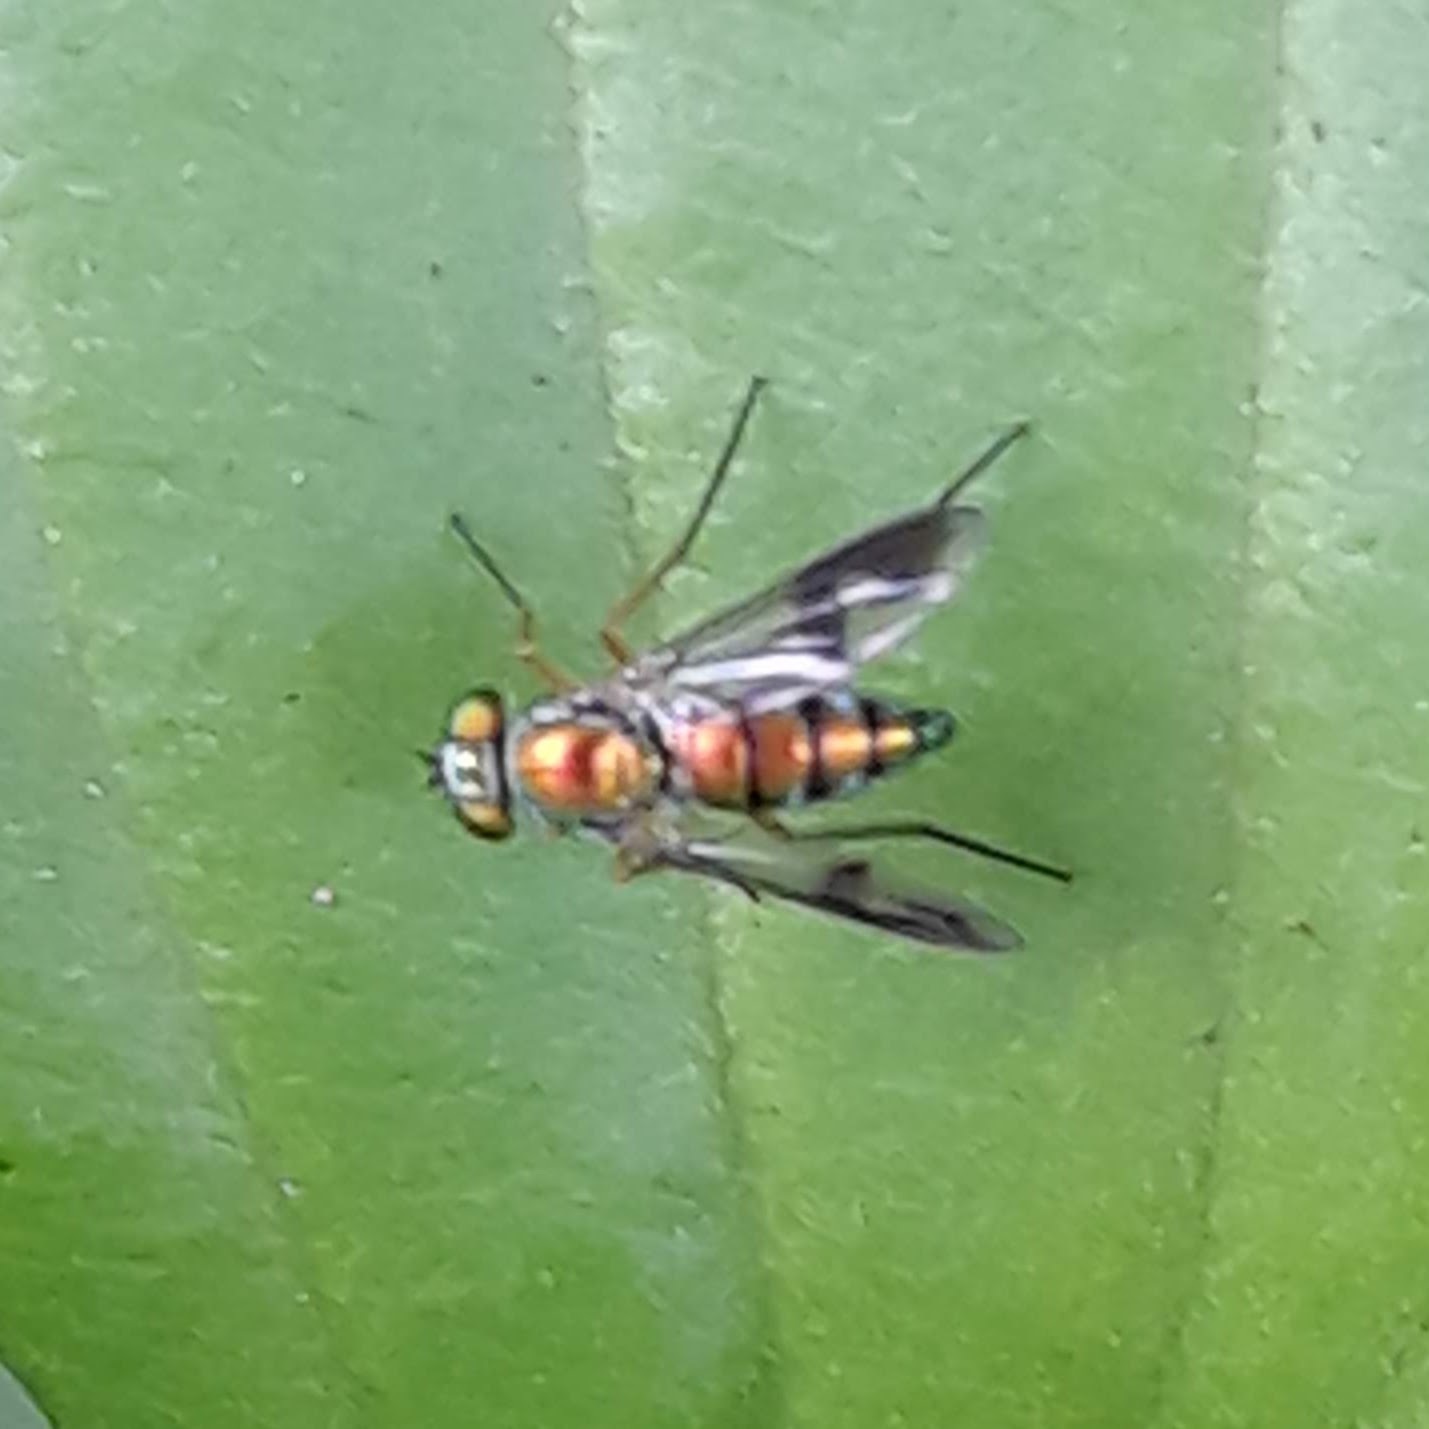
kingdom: Animalia
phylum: Arthropoda
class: Insecta
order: Diptera
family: Dolichopodidae
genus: Condylostylus
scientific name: Condylostylus
